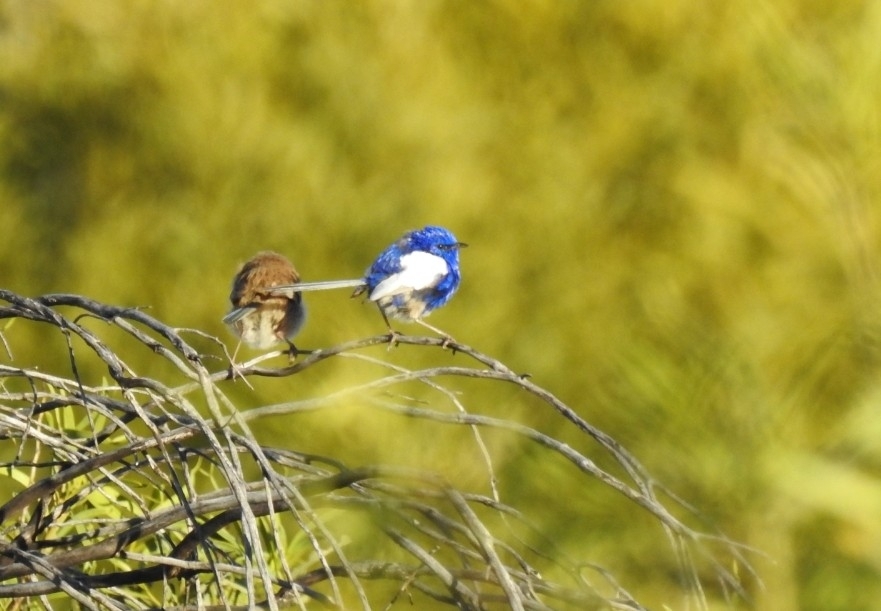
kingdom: Animalia
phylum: Chordata
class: Aves
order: Passeriformes
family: Maluridae
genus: Malurus
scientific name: Malurus leucopterus
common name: White-winged fairywren
